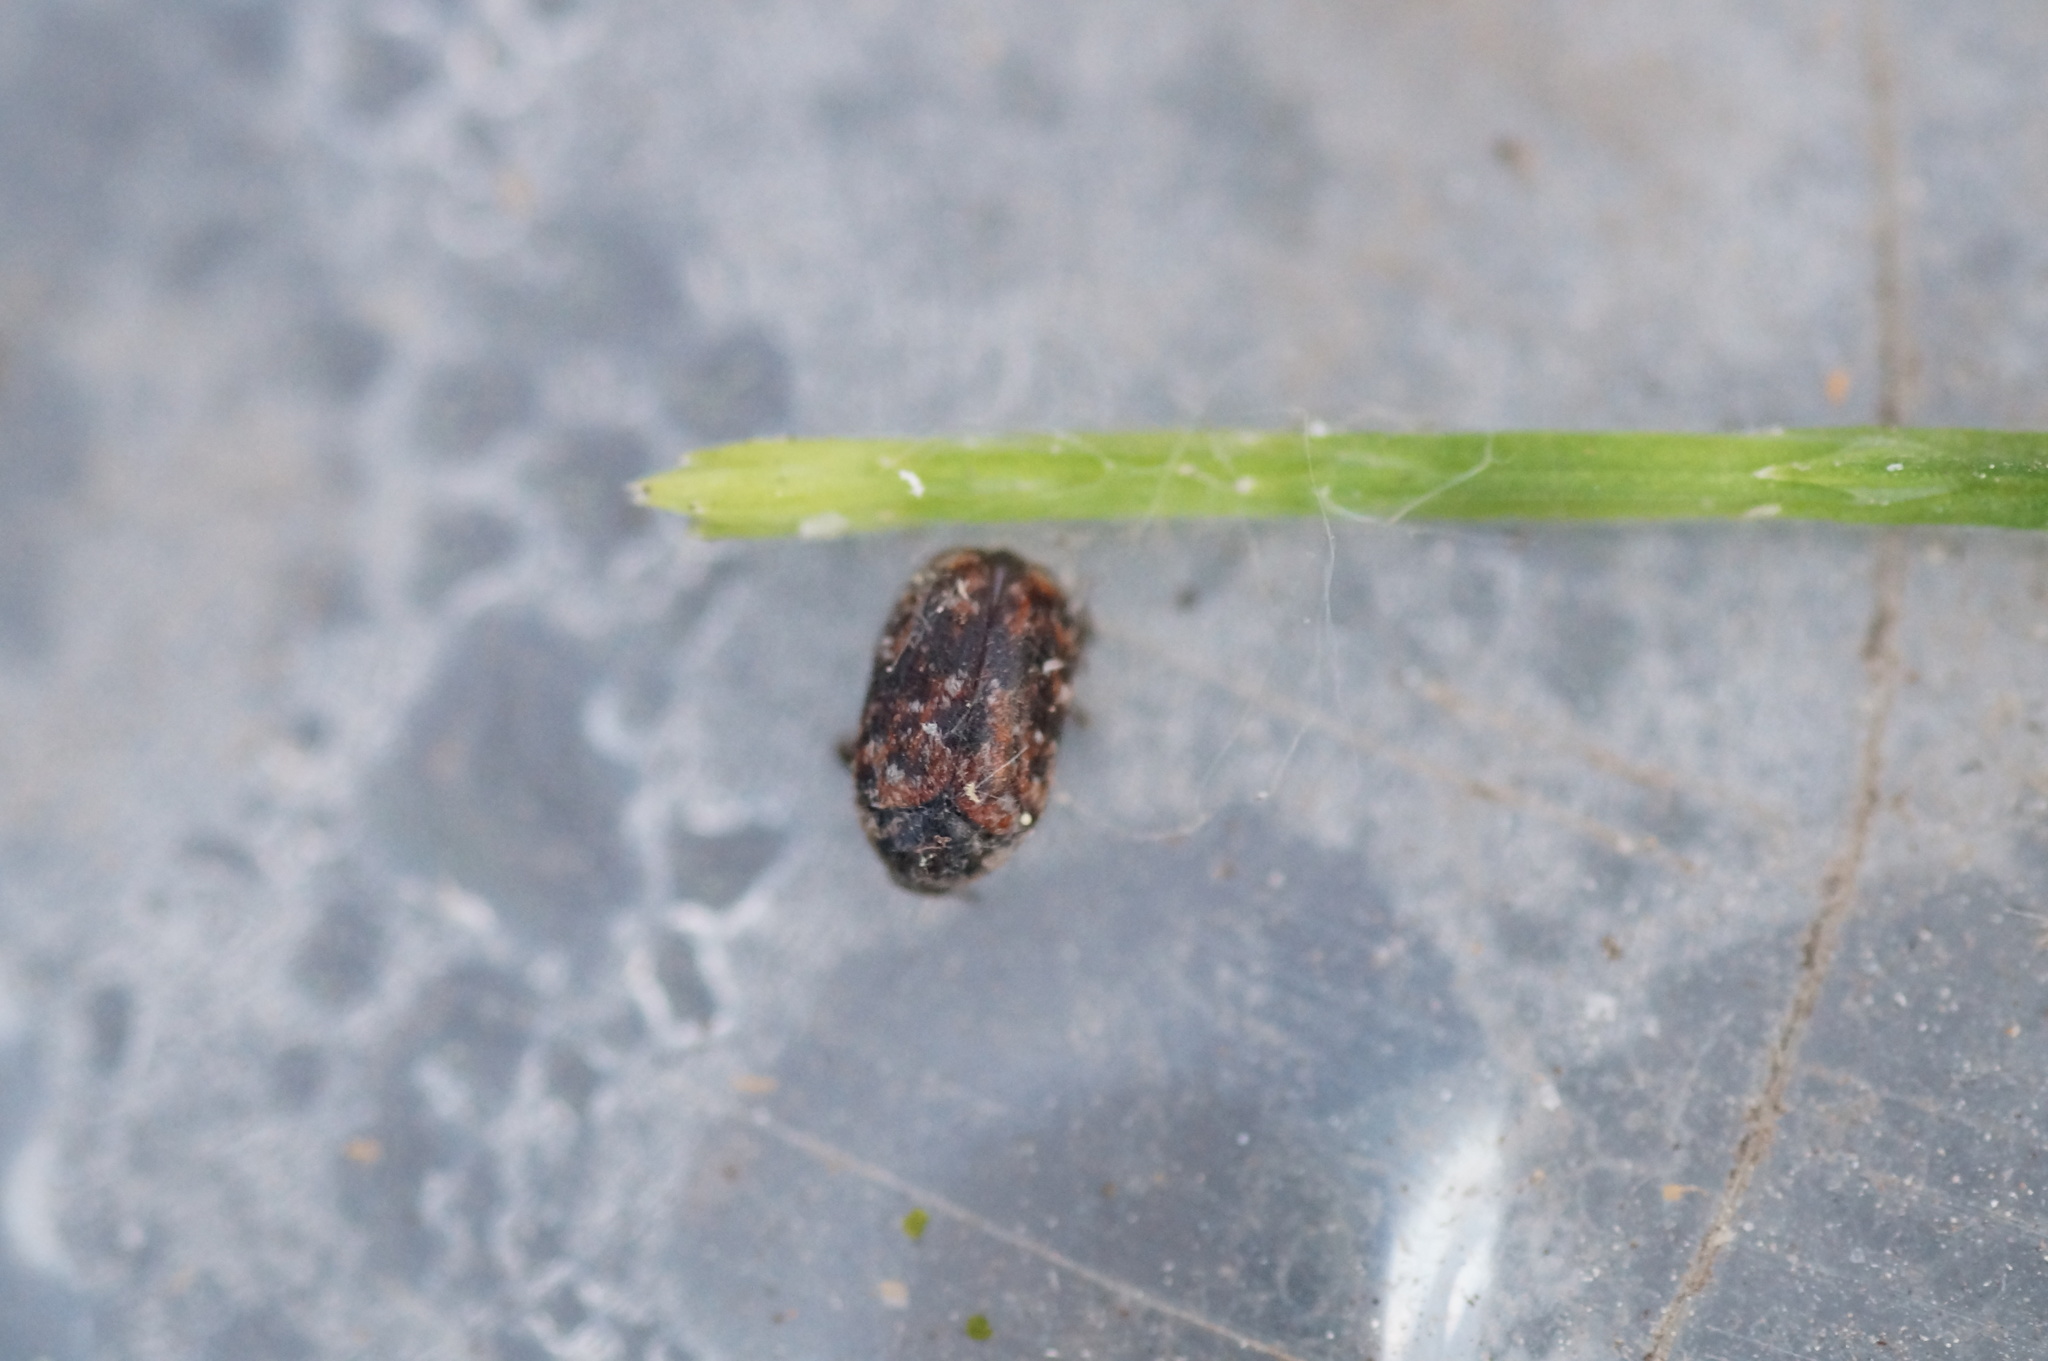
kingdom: Animalia
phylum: Arthropoda
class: Insecta
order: Coleoptera
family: Dermestidae
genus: Trogoderma
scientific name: Trogoderma
